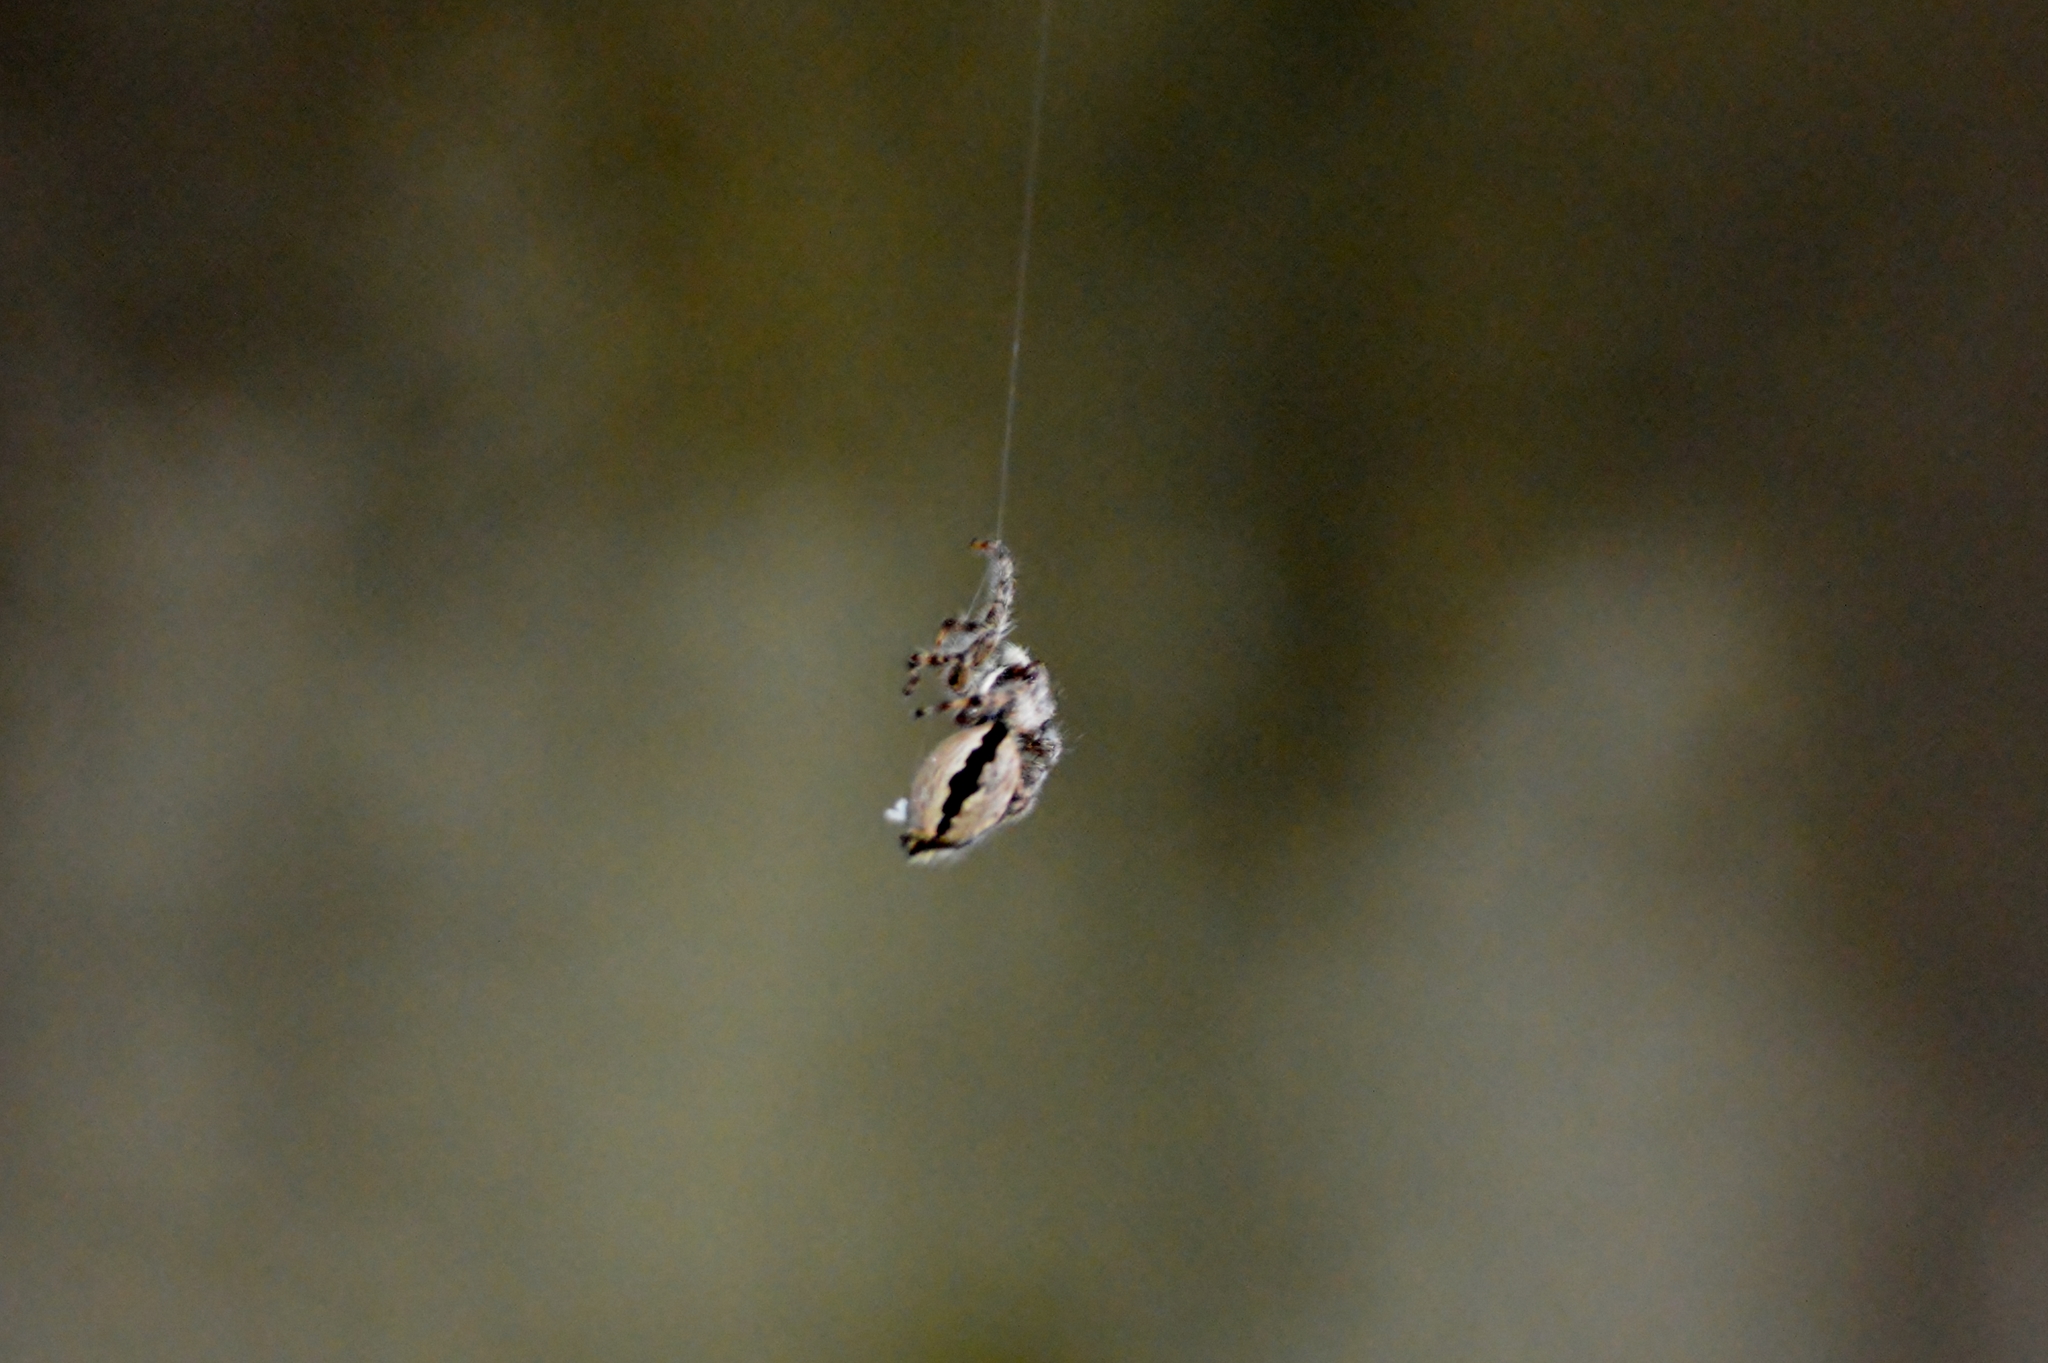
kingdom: Animalia
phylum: Arthropoda
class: Arachnida
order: Araneae
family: Salticidae
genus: Menemerus
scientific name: Menemerus bivittatus
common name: Gray wall jumper
